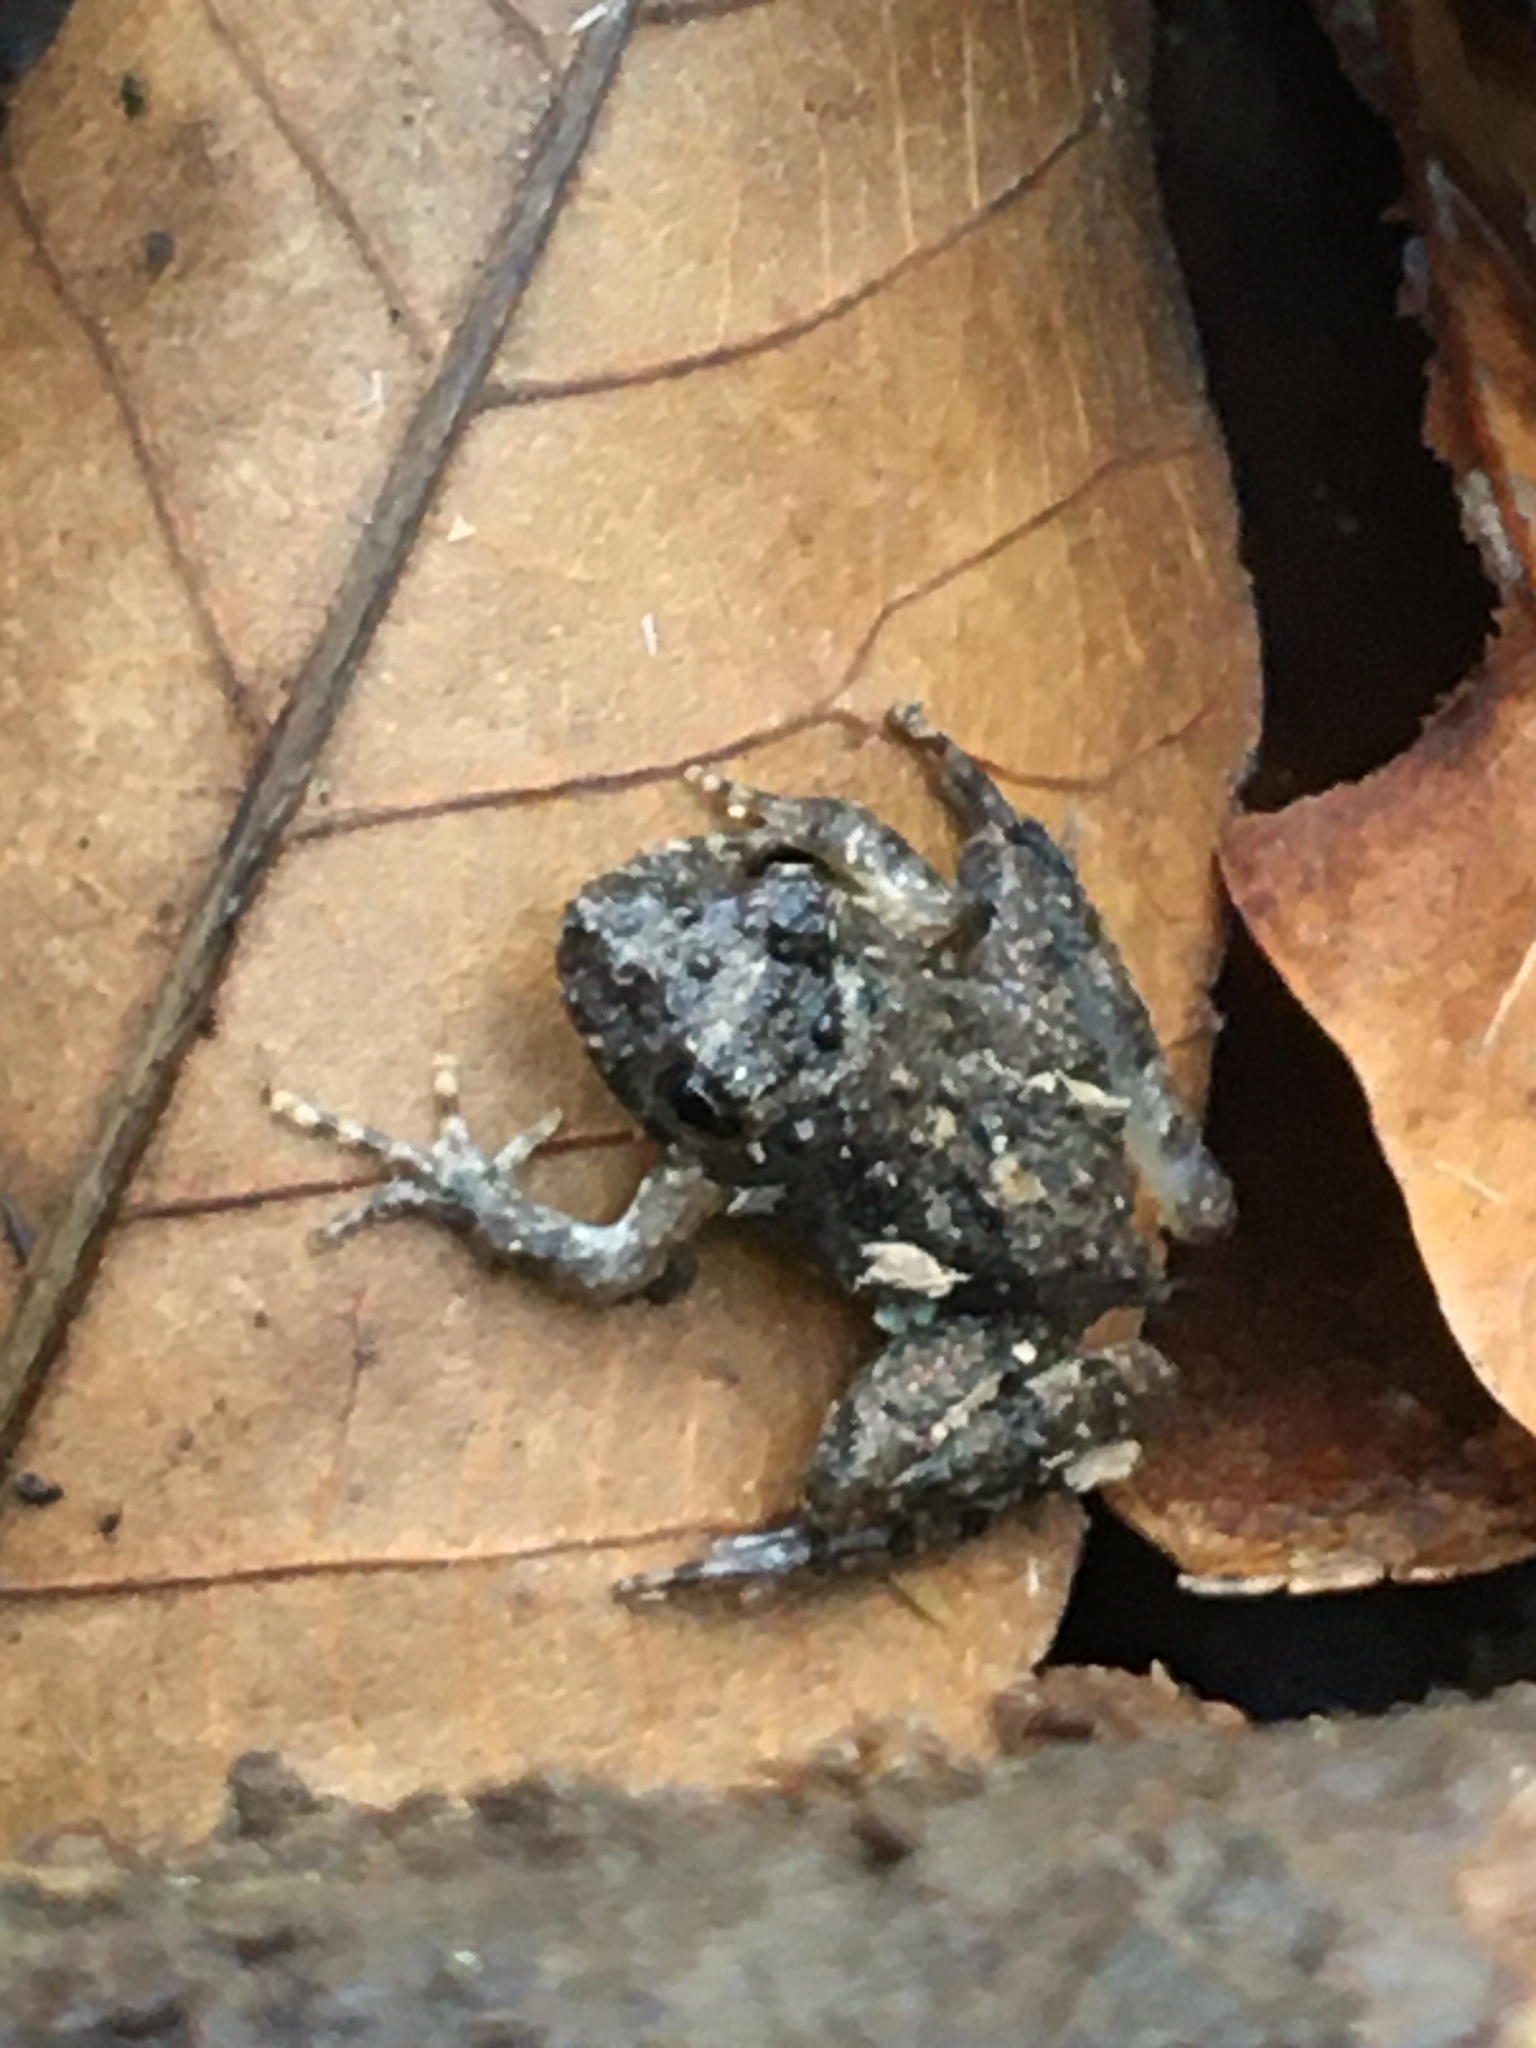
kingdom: Animalia
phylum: Chordata
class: Amphibia
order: Anura
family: Hylidae
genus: Acris
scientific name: Acris blanchardi
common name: Blanchard's cricket frog
